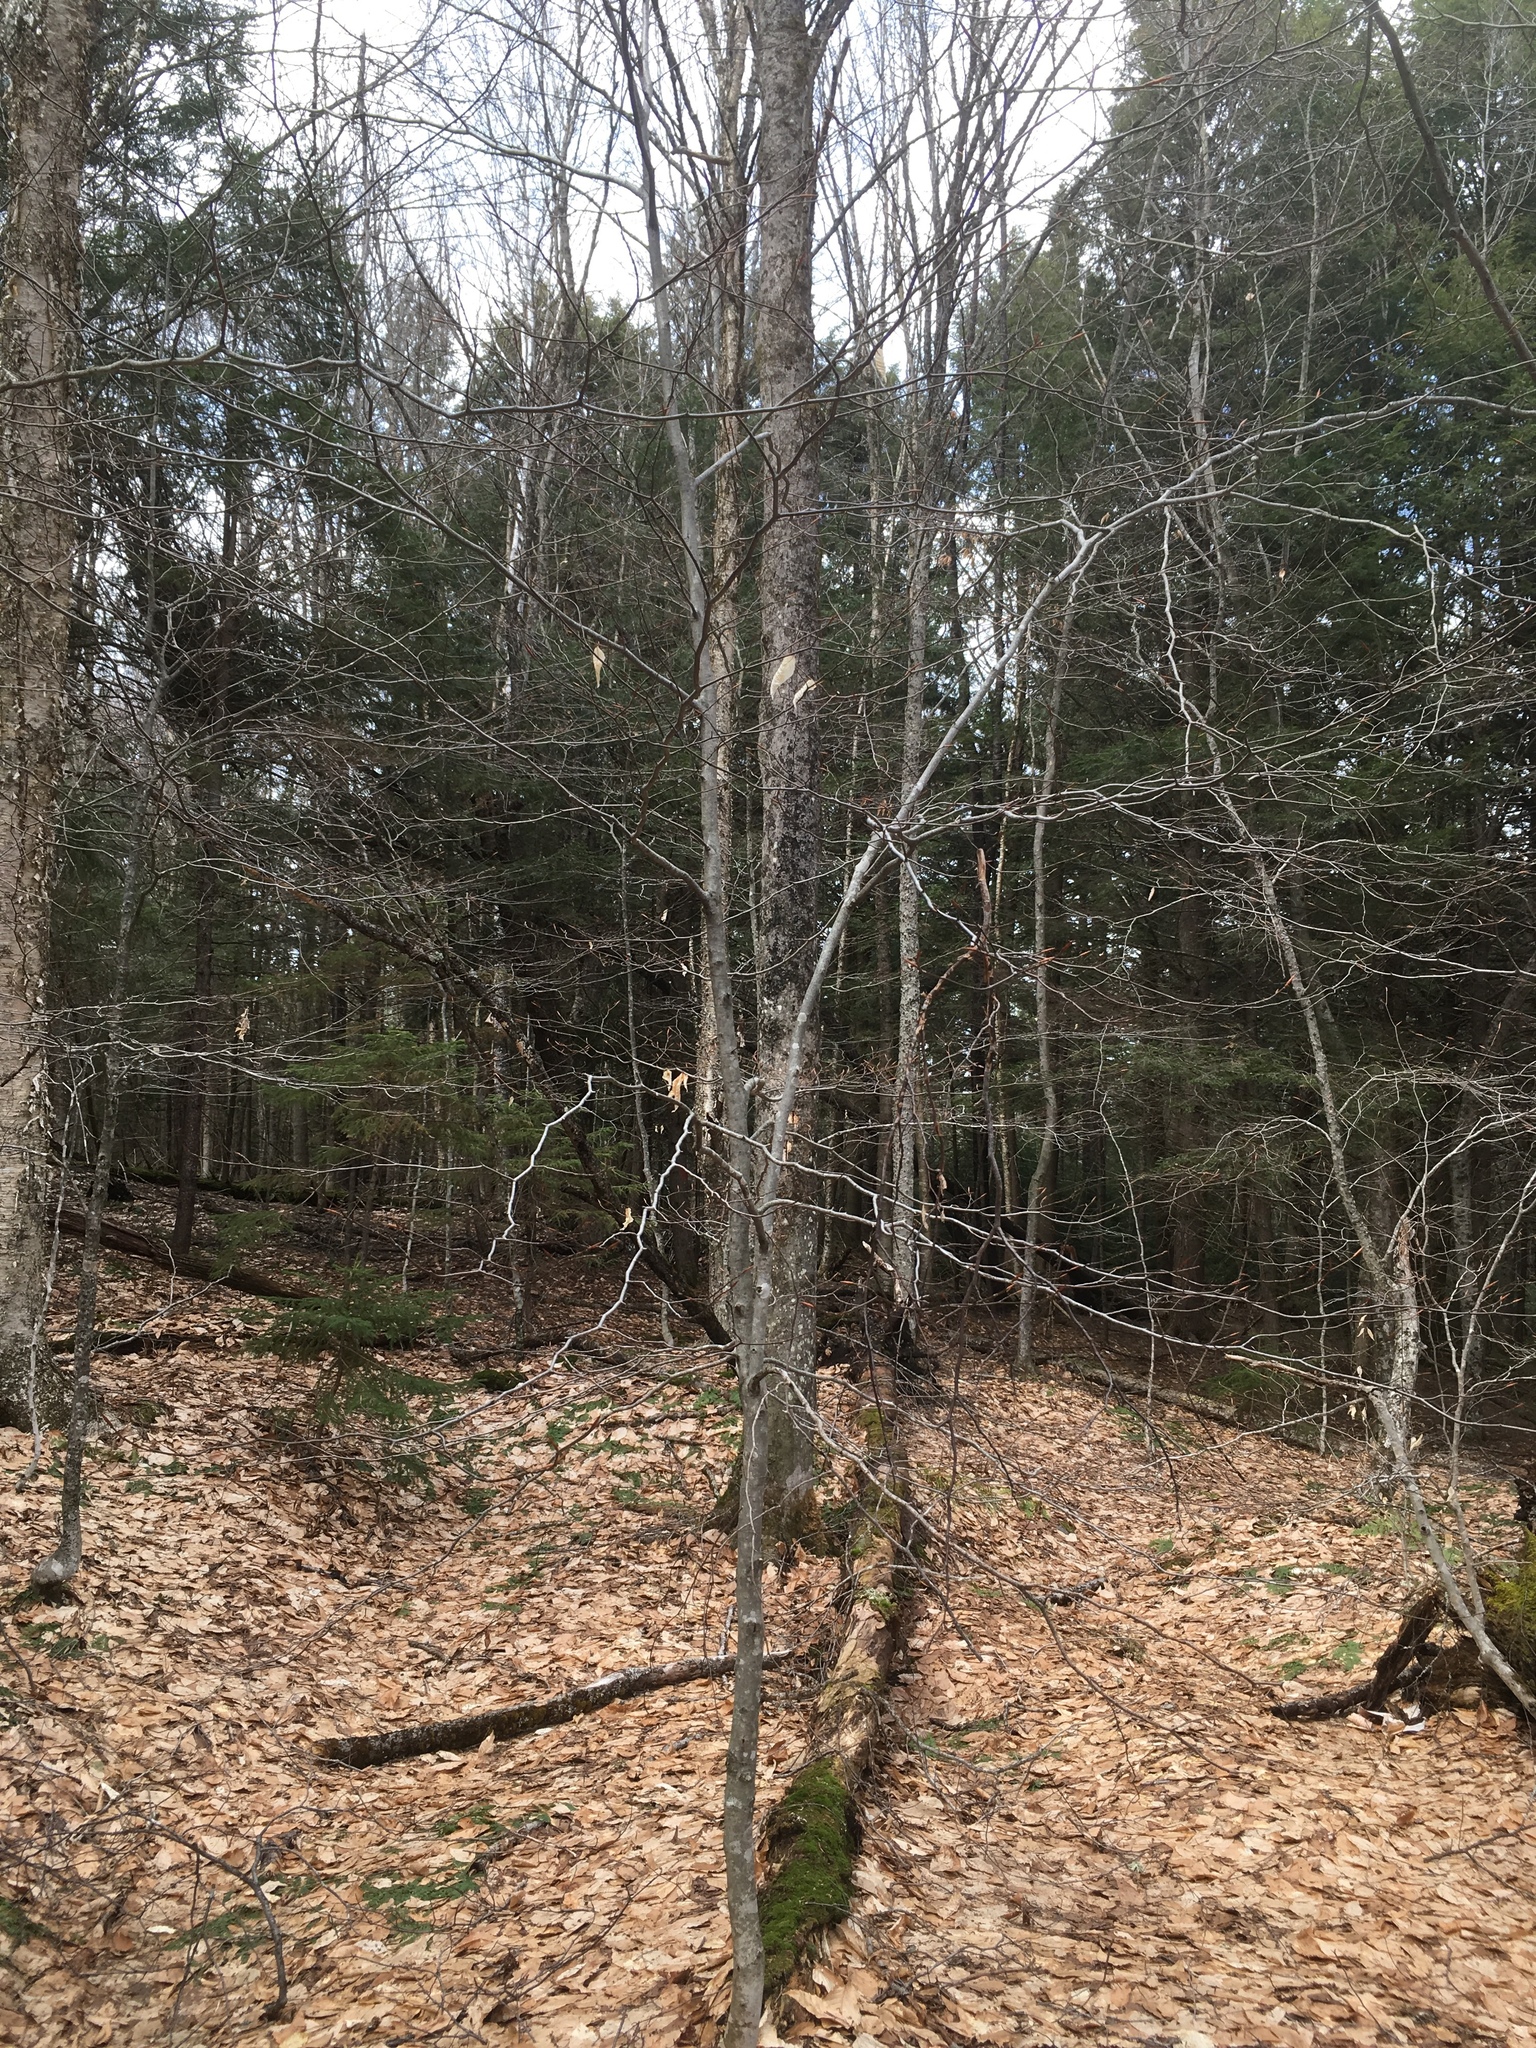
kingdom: Plantae
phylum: Tracheophyta
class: Magnoliopsida
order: Fagales
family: Fagaceae
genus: Fagus
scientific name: Fagus grandifolia
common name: American beech
